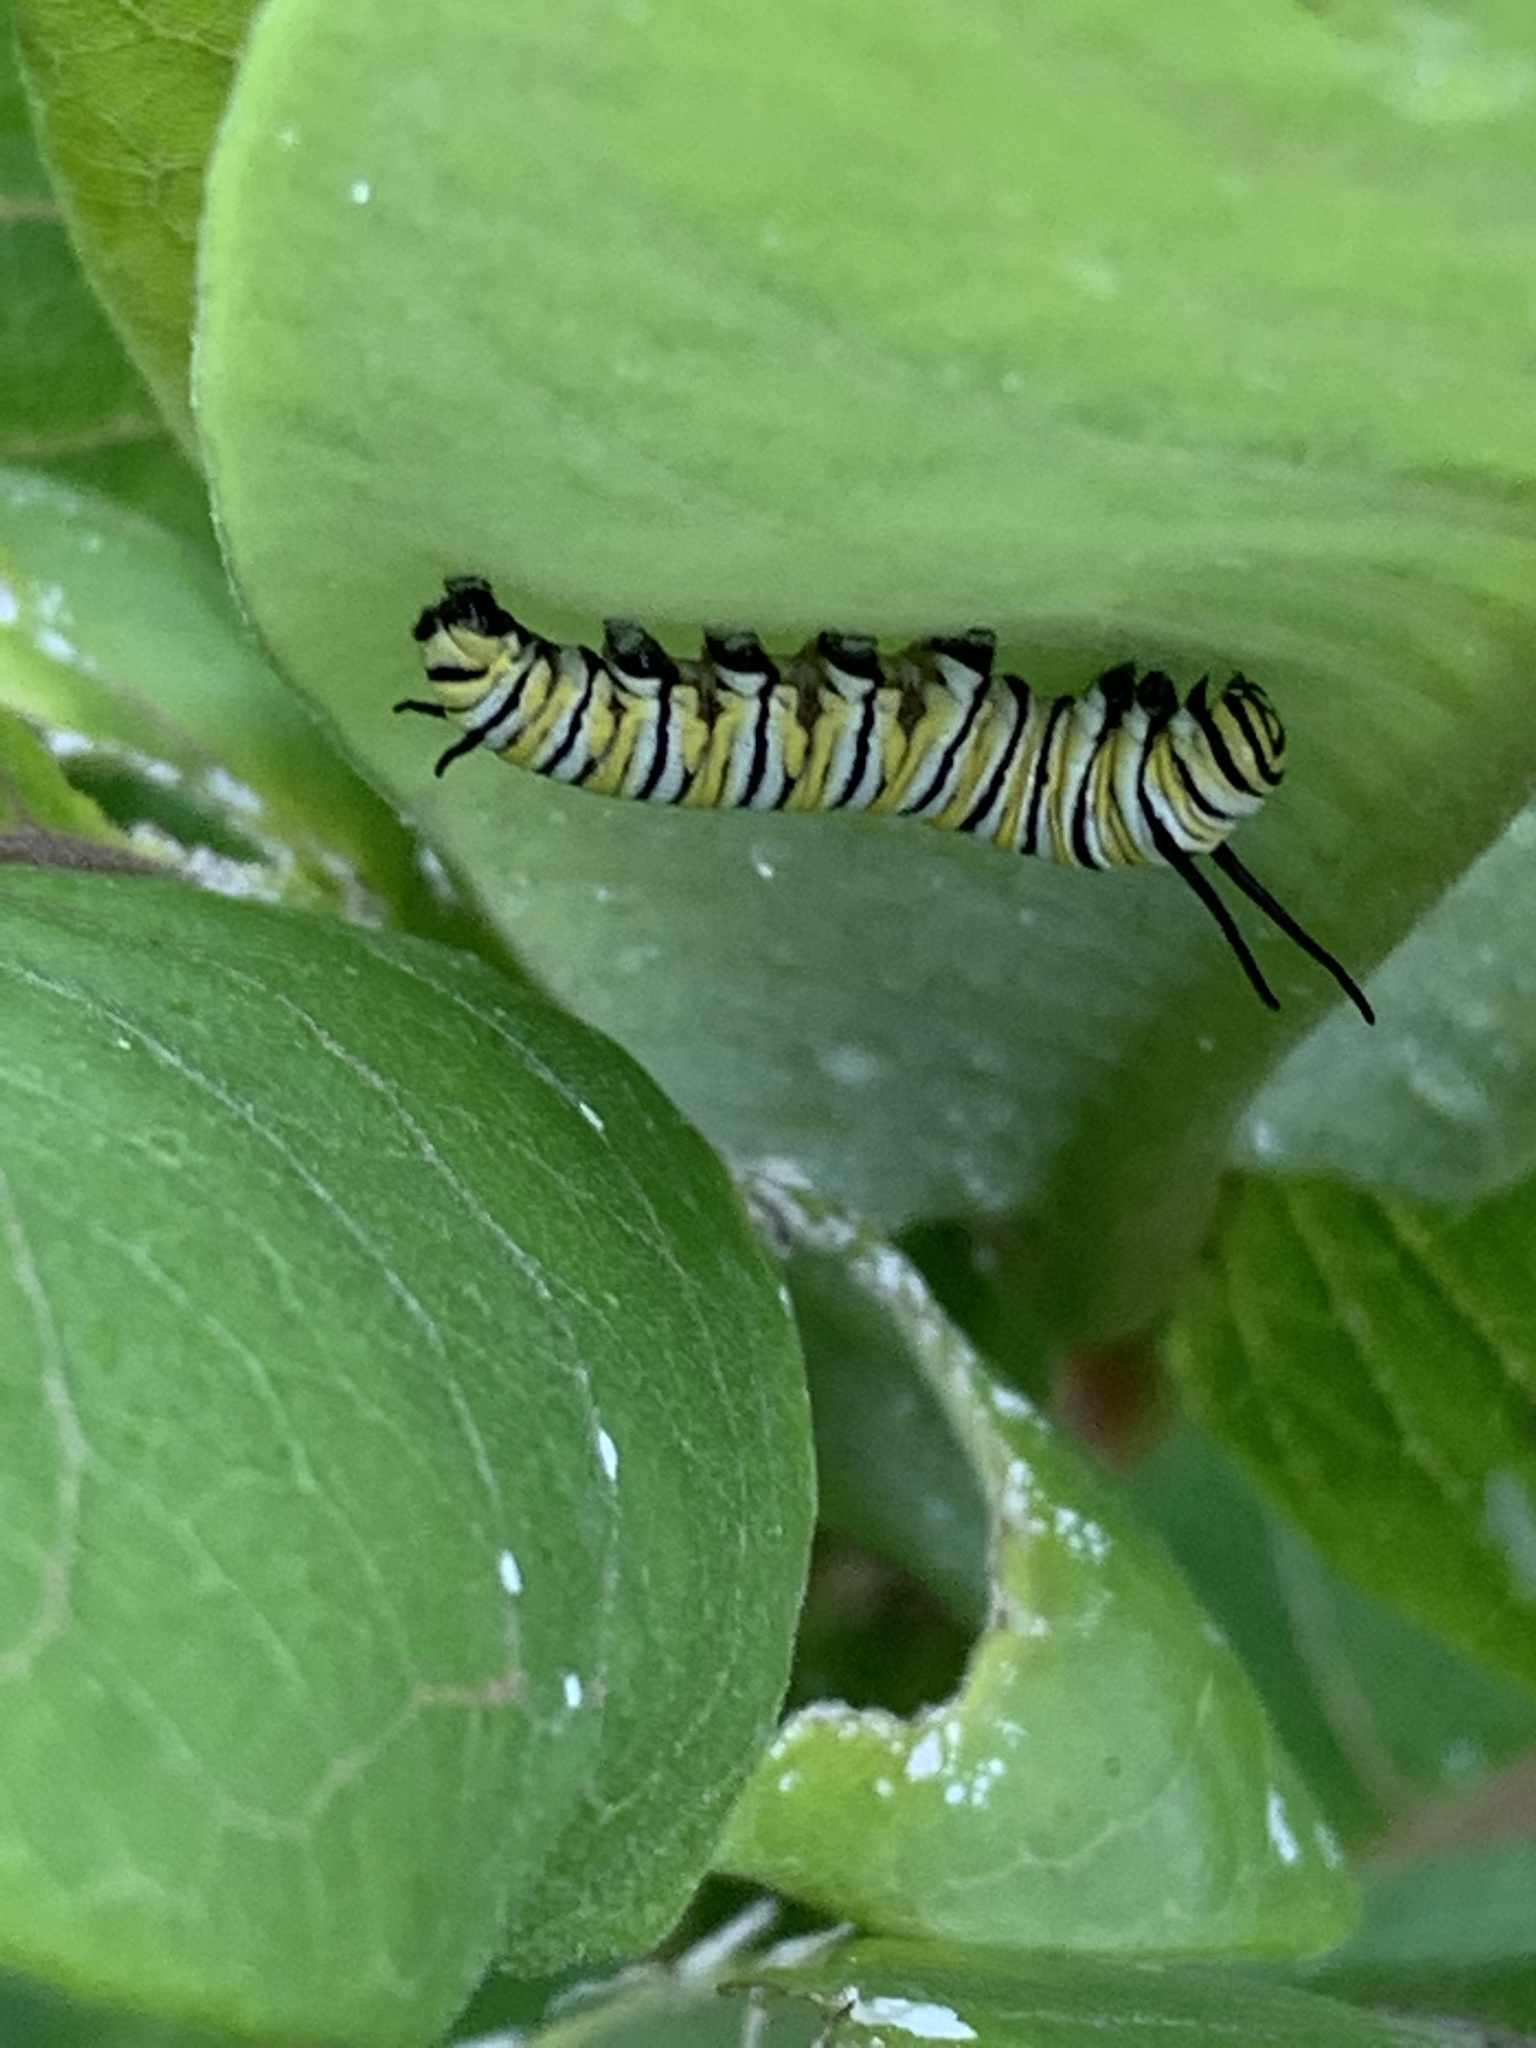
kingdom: Animalia
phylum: Arthropoda
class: Insecta
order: Lepidoptera
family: Nymphalidae
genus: Danaus
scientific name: Danaus plexippus
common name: Monarch
